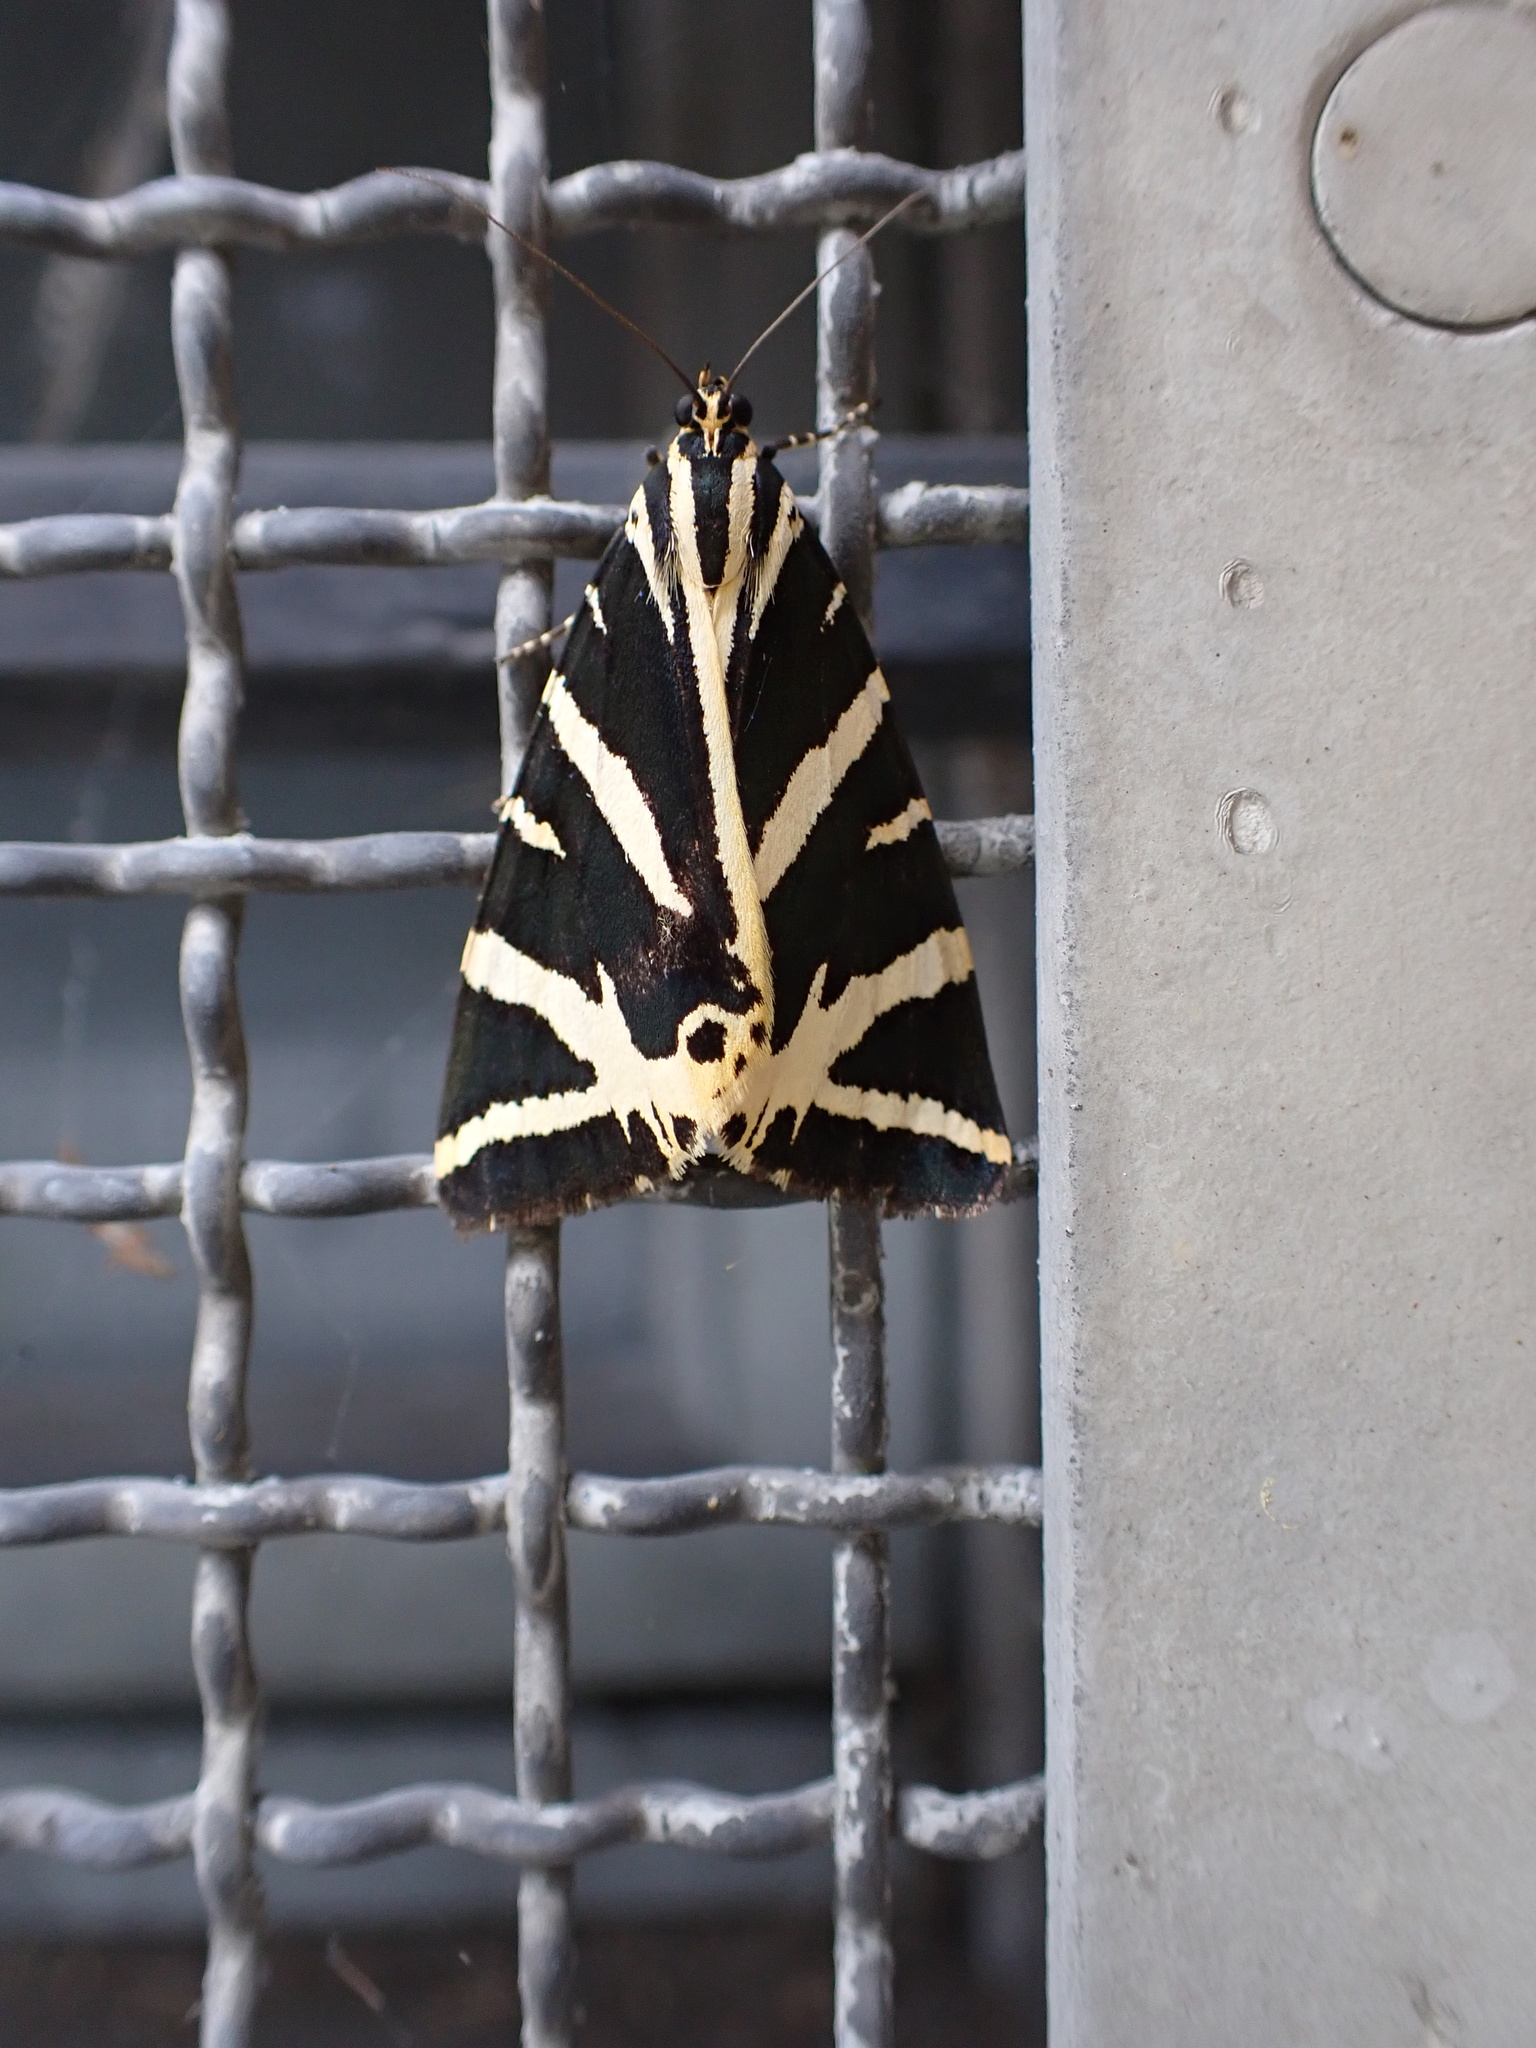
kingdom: Animalia
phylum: Arthropoda
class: Insecta
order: Lepidoptera
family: Erebidae
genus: Euplagia
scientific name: Euplagia quadripunctaria
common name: Jersey tiger
